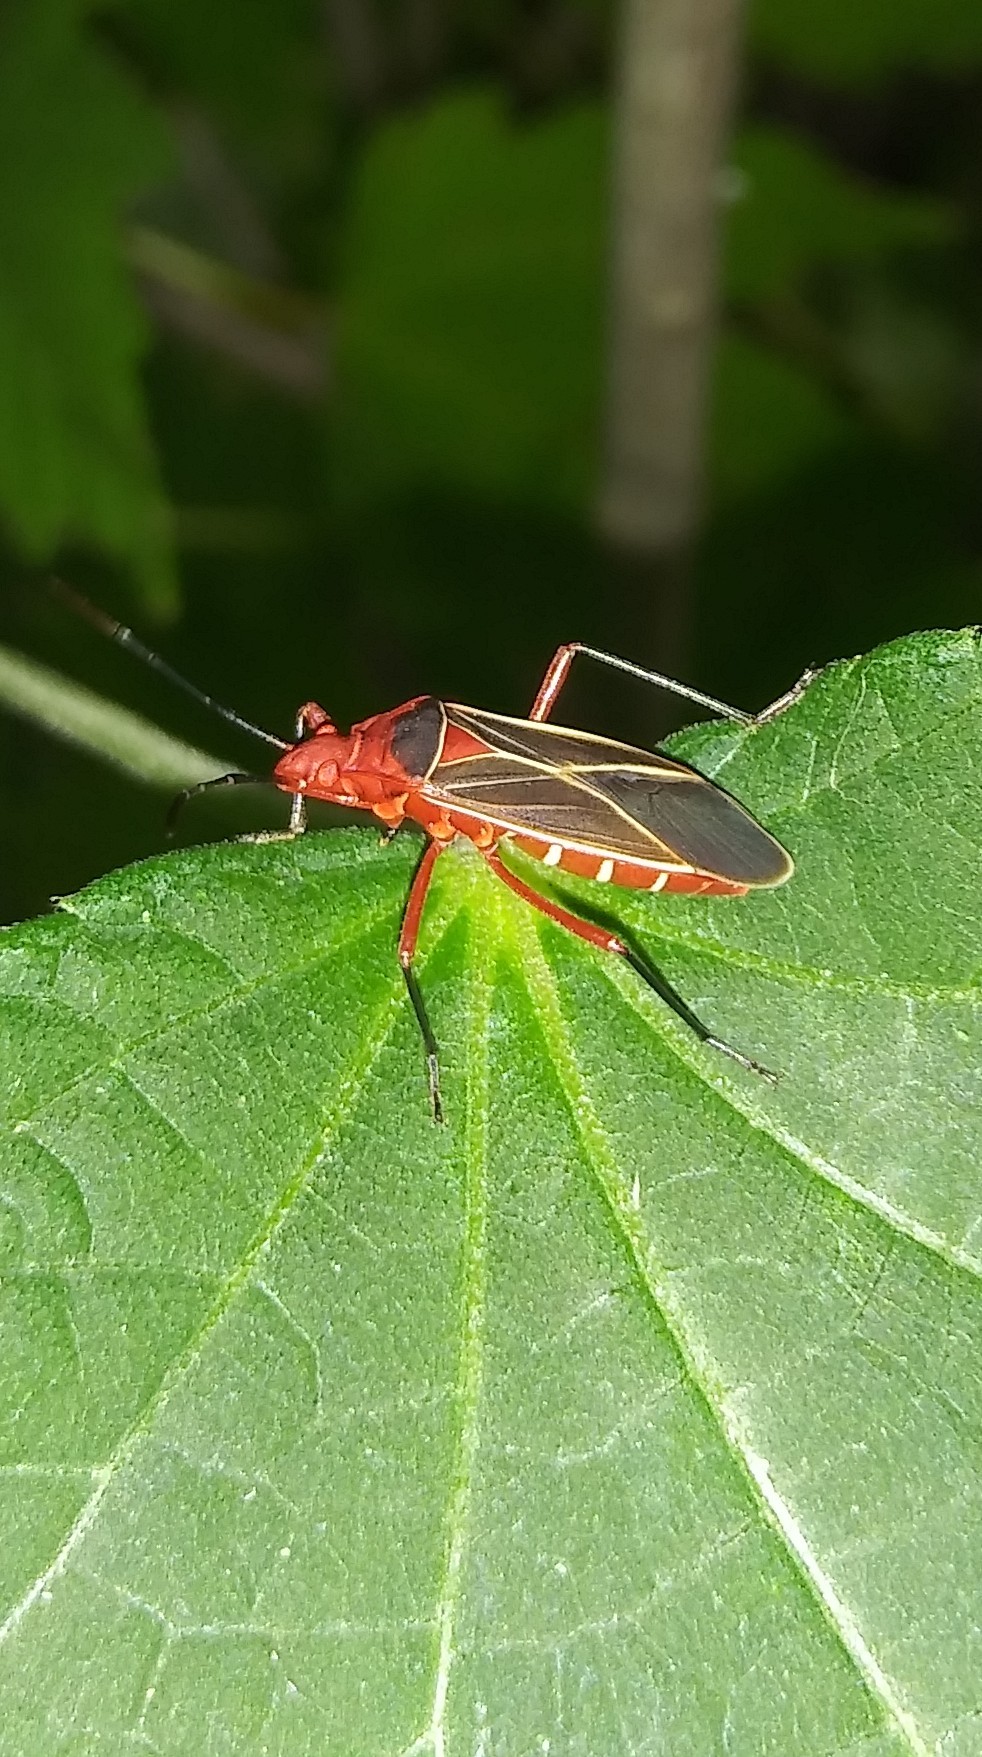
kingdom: Animalia
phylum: Arthropoda
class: Insecta
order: Hemiptera
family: Pyrrhocoridae
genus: Dysdercus
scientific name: Dysdercus suturellus
